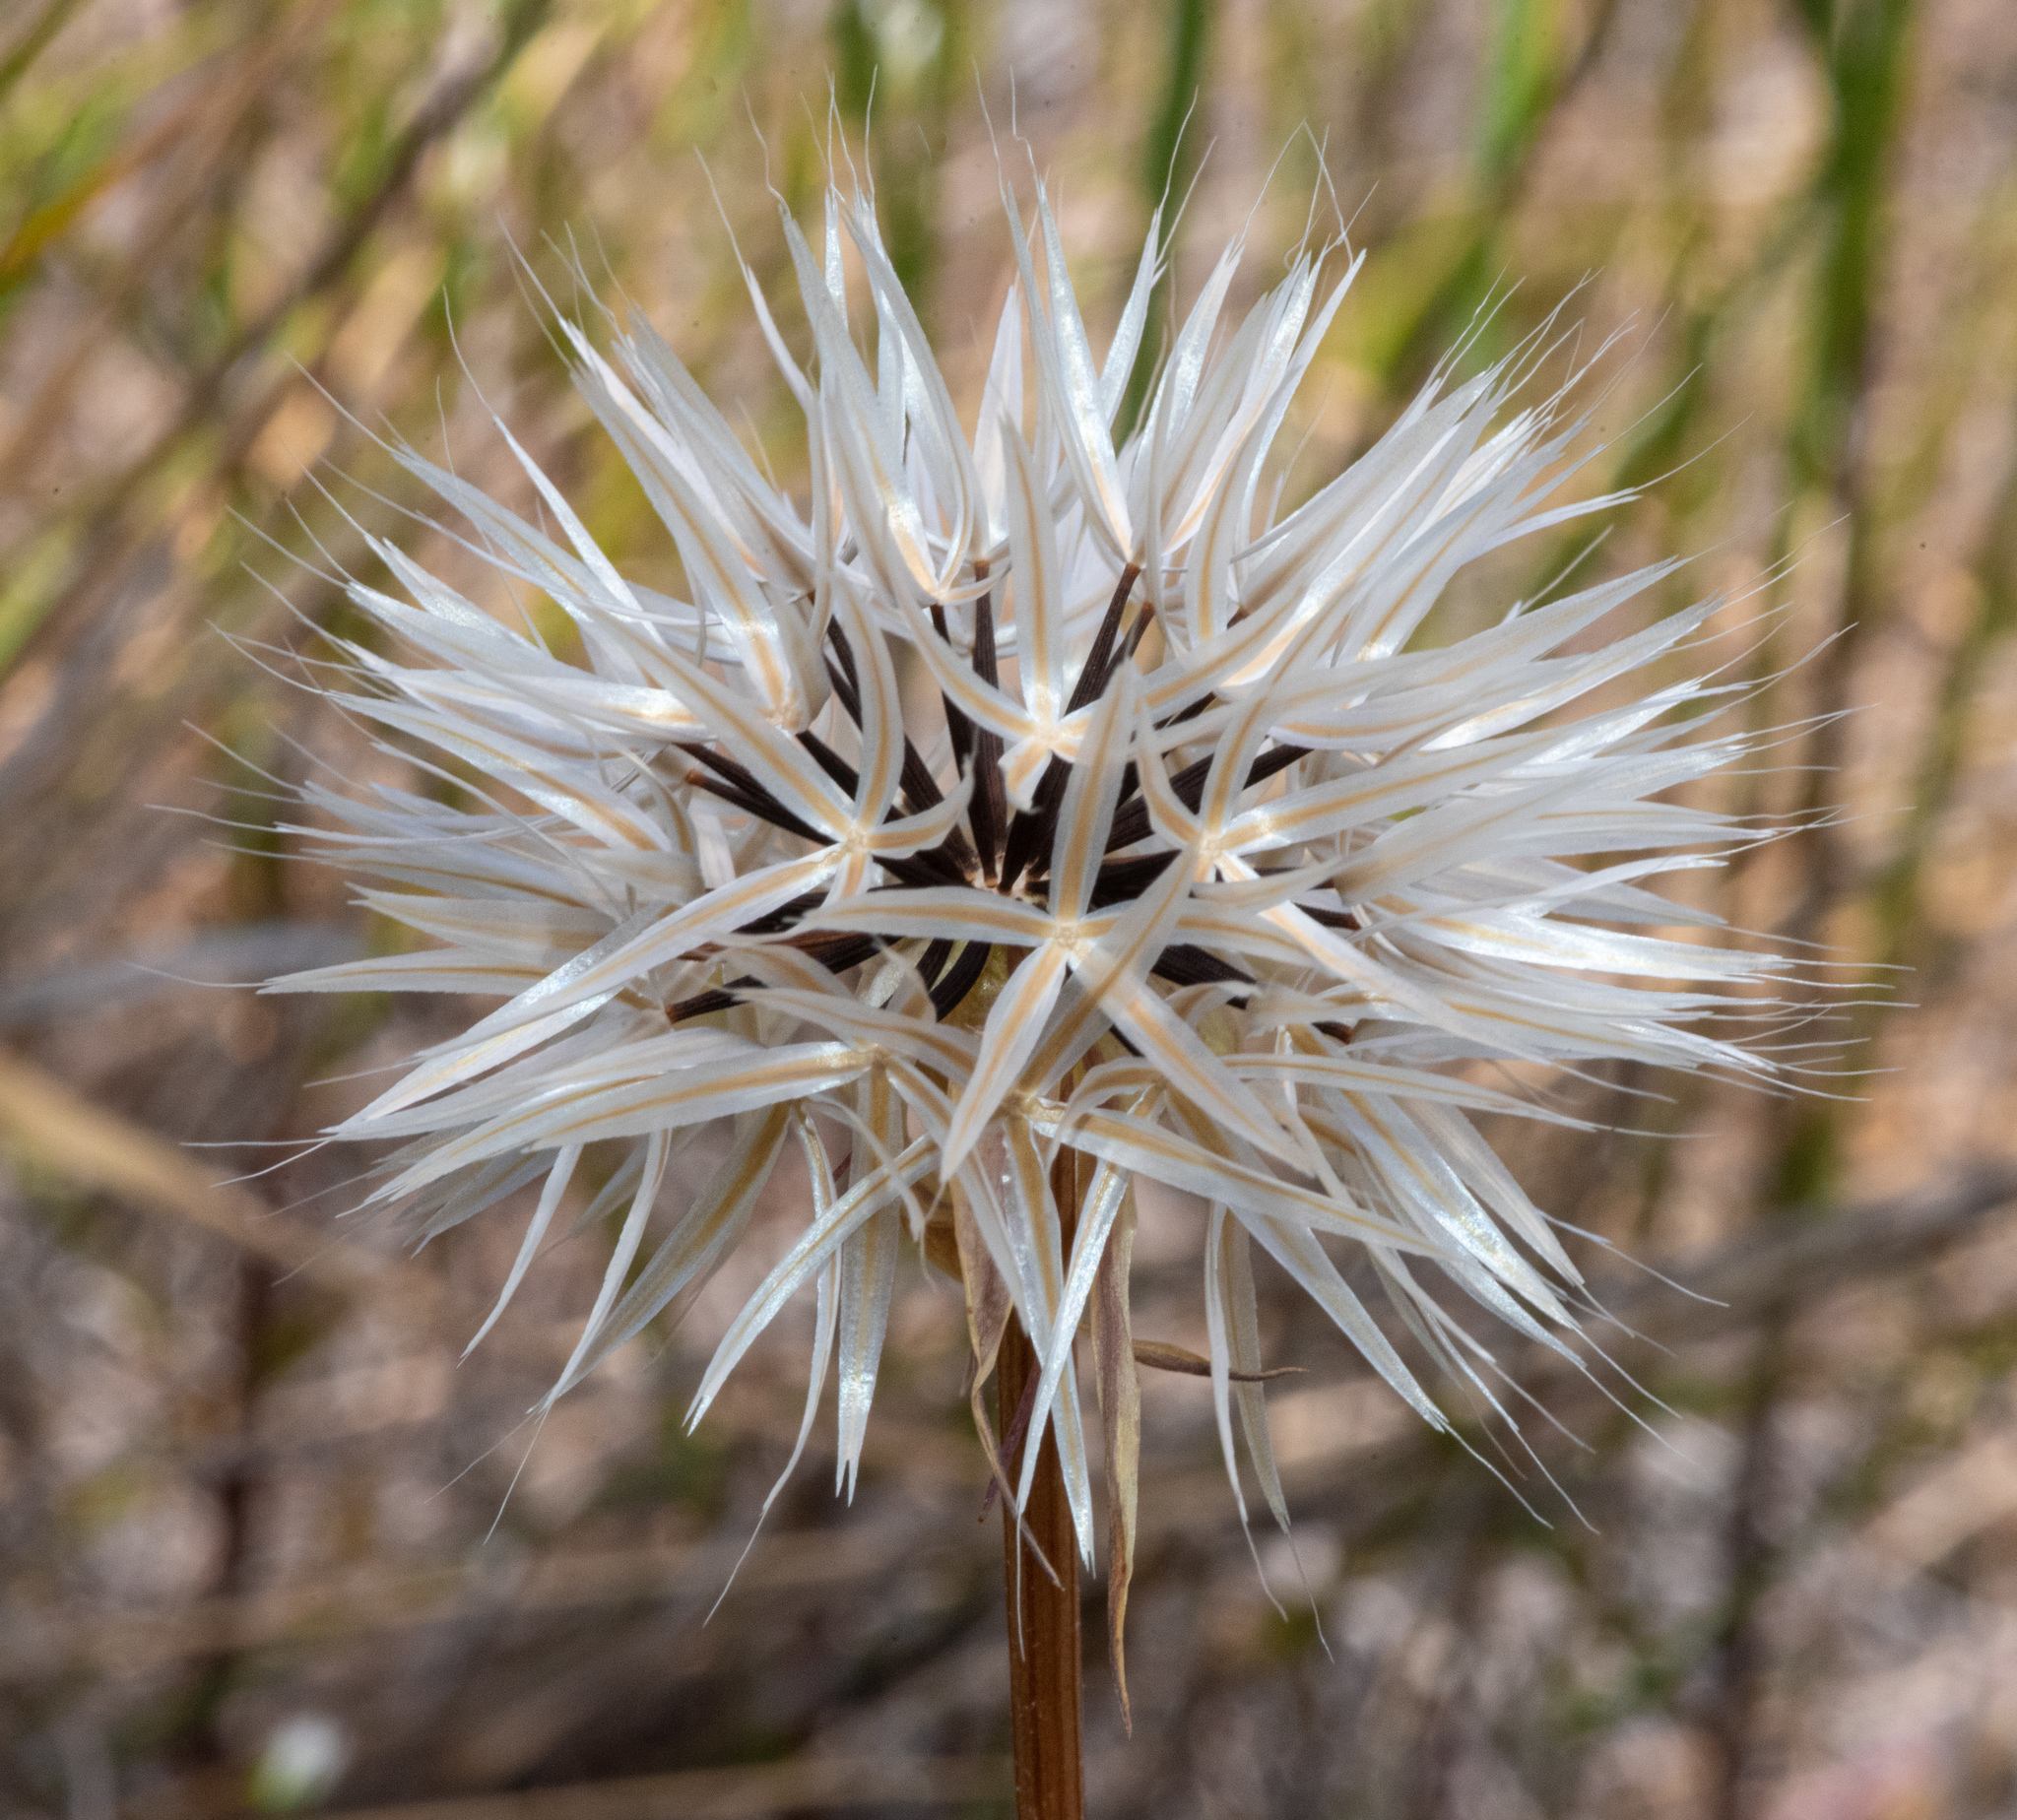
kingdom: Plantae
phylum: Tracheophyta
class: Magnoliopsida
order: Asterales
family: Asteraceae
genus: Microseris
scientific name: Microseris lindleyi
